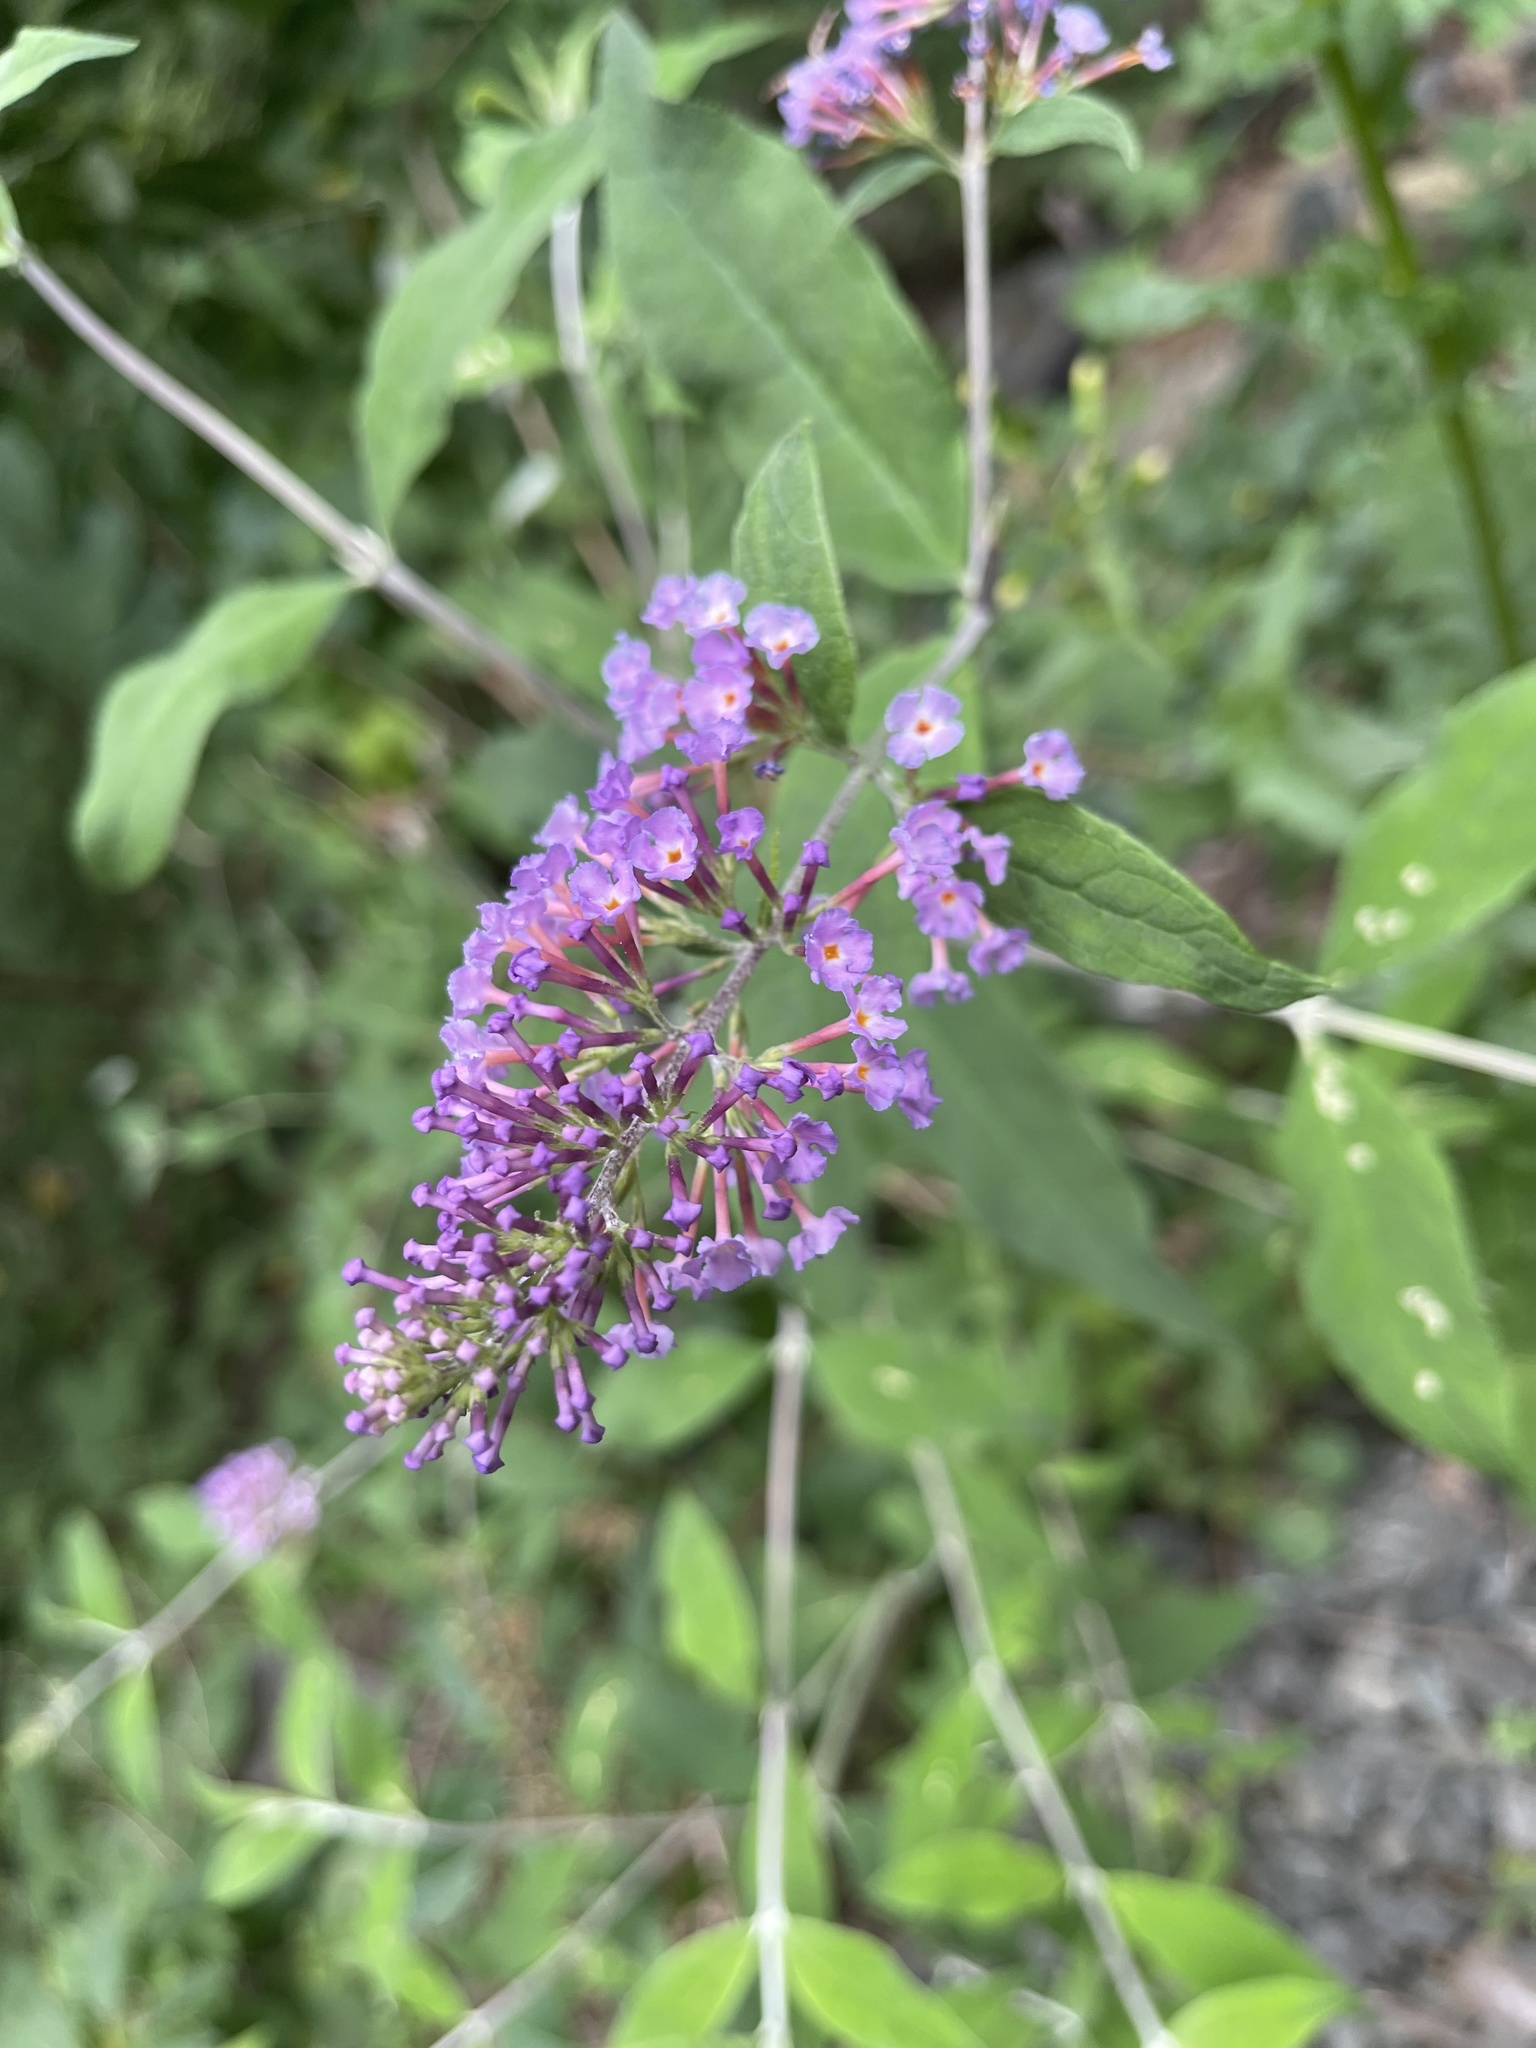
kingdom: Plantae
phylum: Tracheophyta
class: Magnoliopsida
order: Lamiales
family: Scrophulariaceae
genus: Buddleja
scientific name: Buddleja davidii
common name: Butterfly-bush
